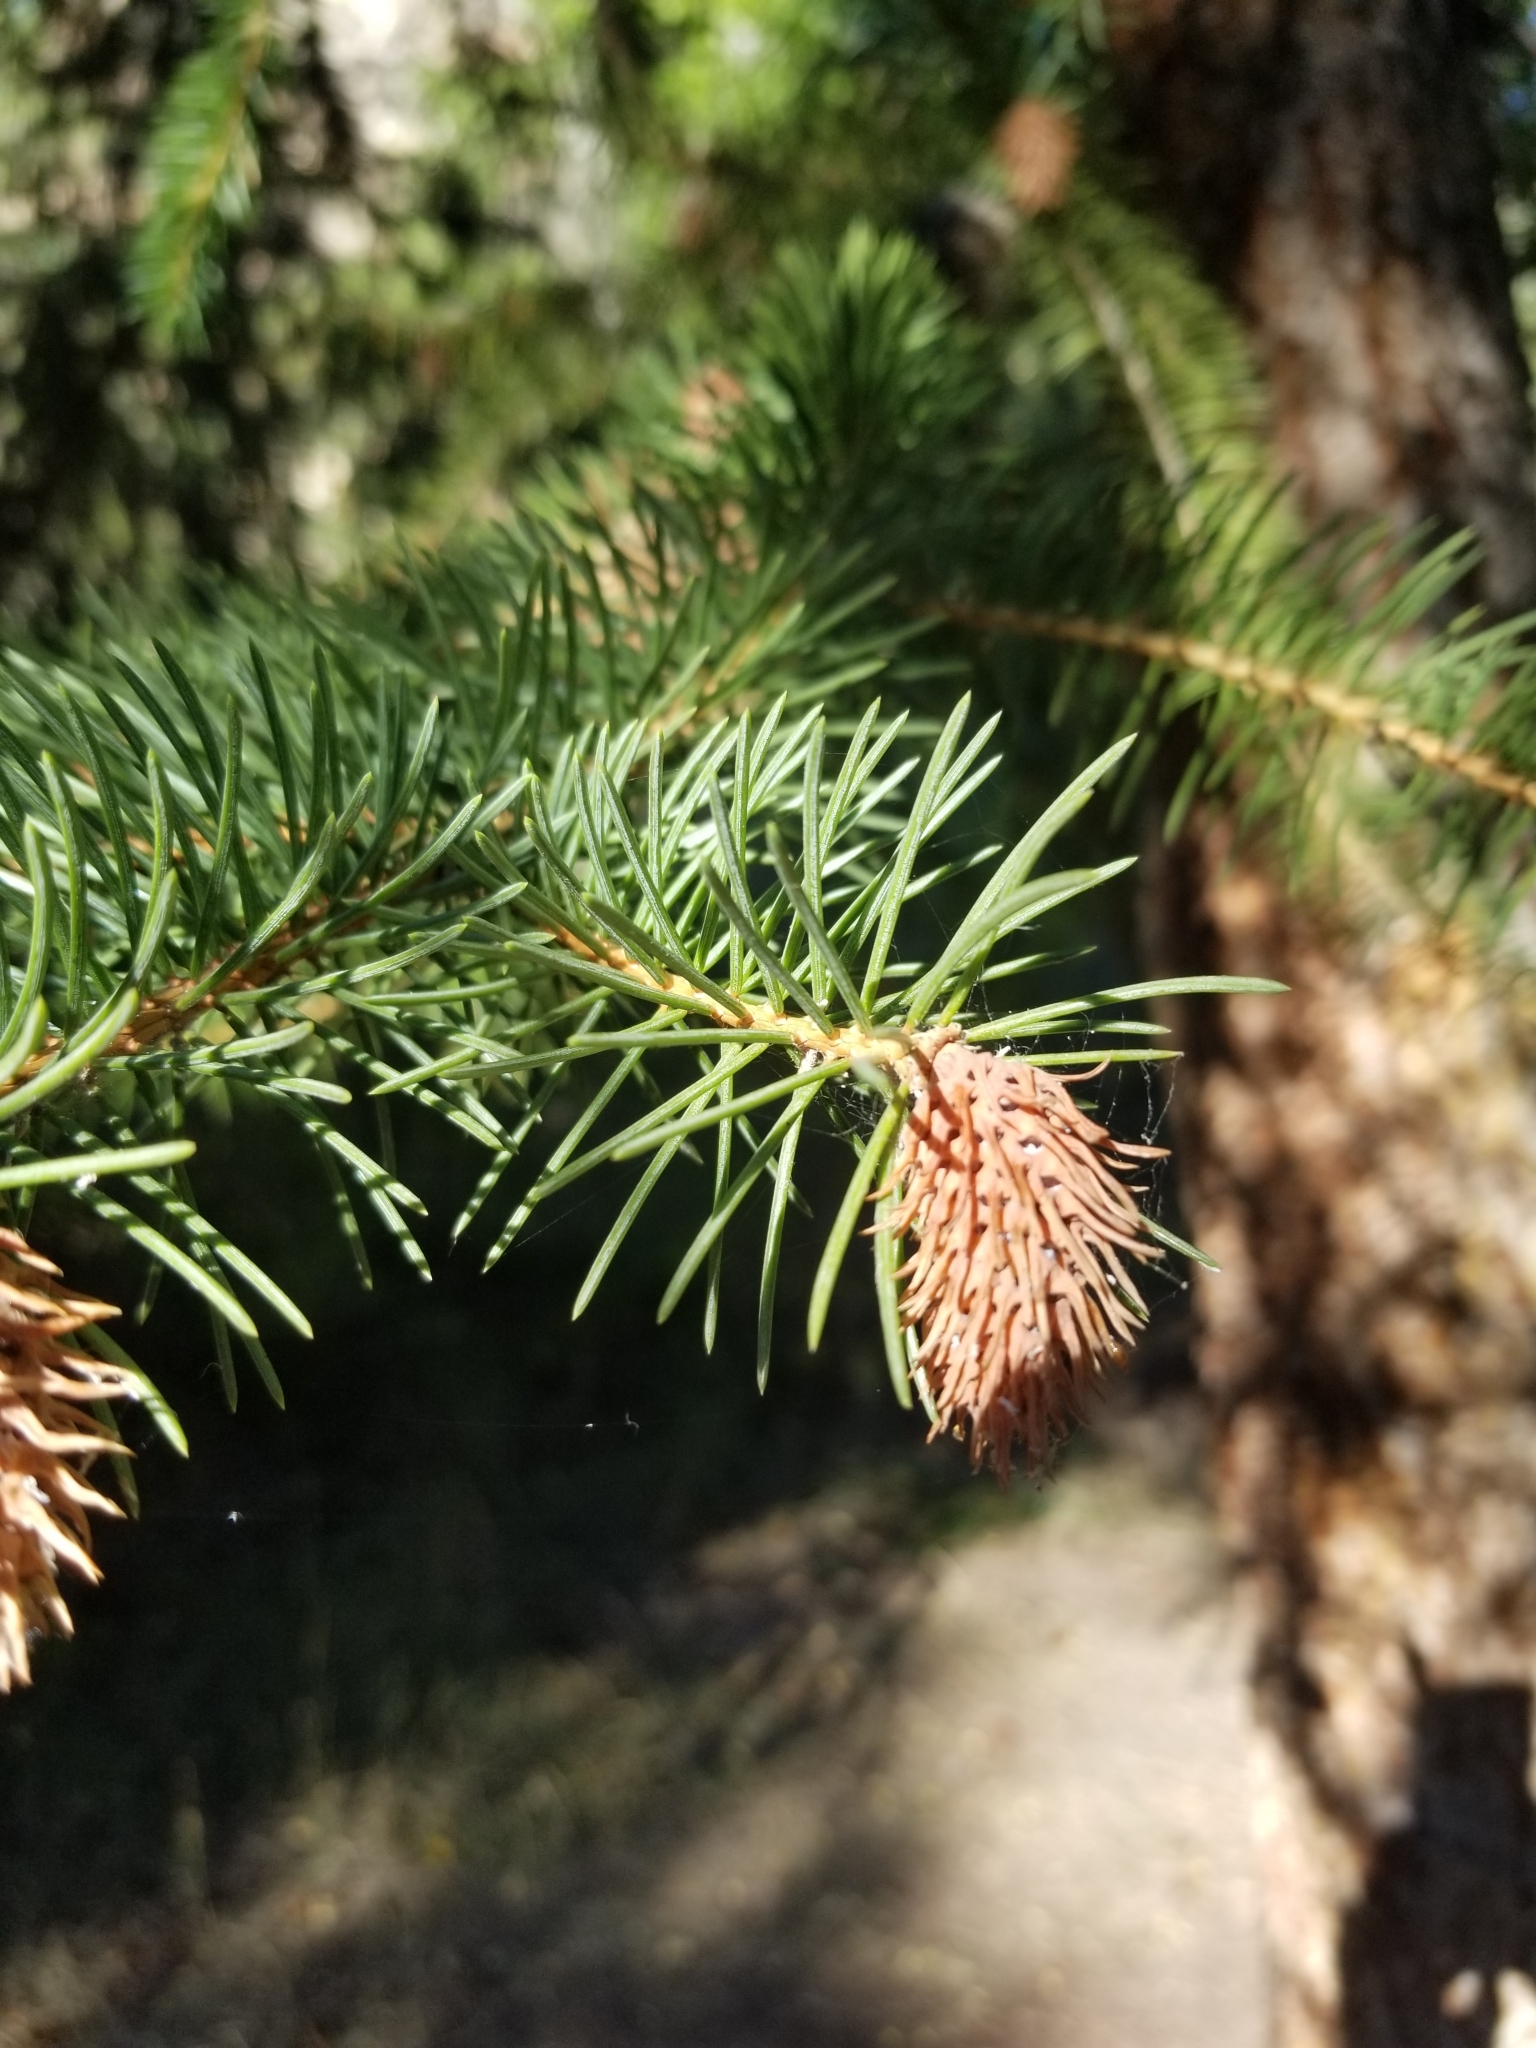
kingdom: Plantae
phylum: Tracheophyta
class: Pinopsida
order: Pinales
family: Pinaceae
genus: Picea
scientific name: Picea pungens
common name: Colorado spruce
